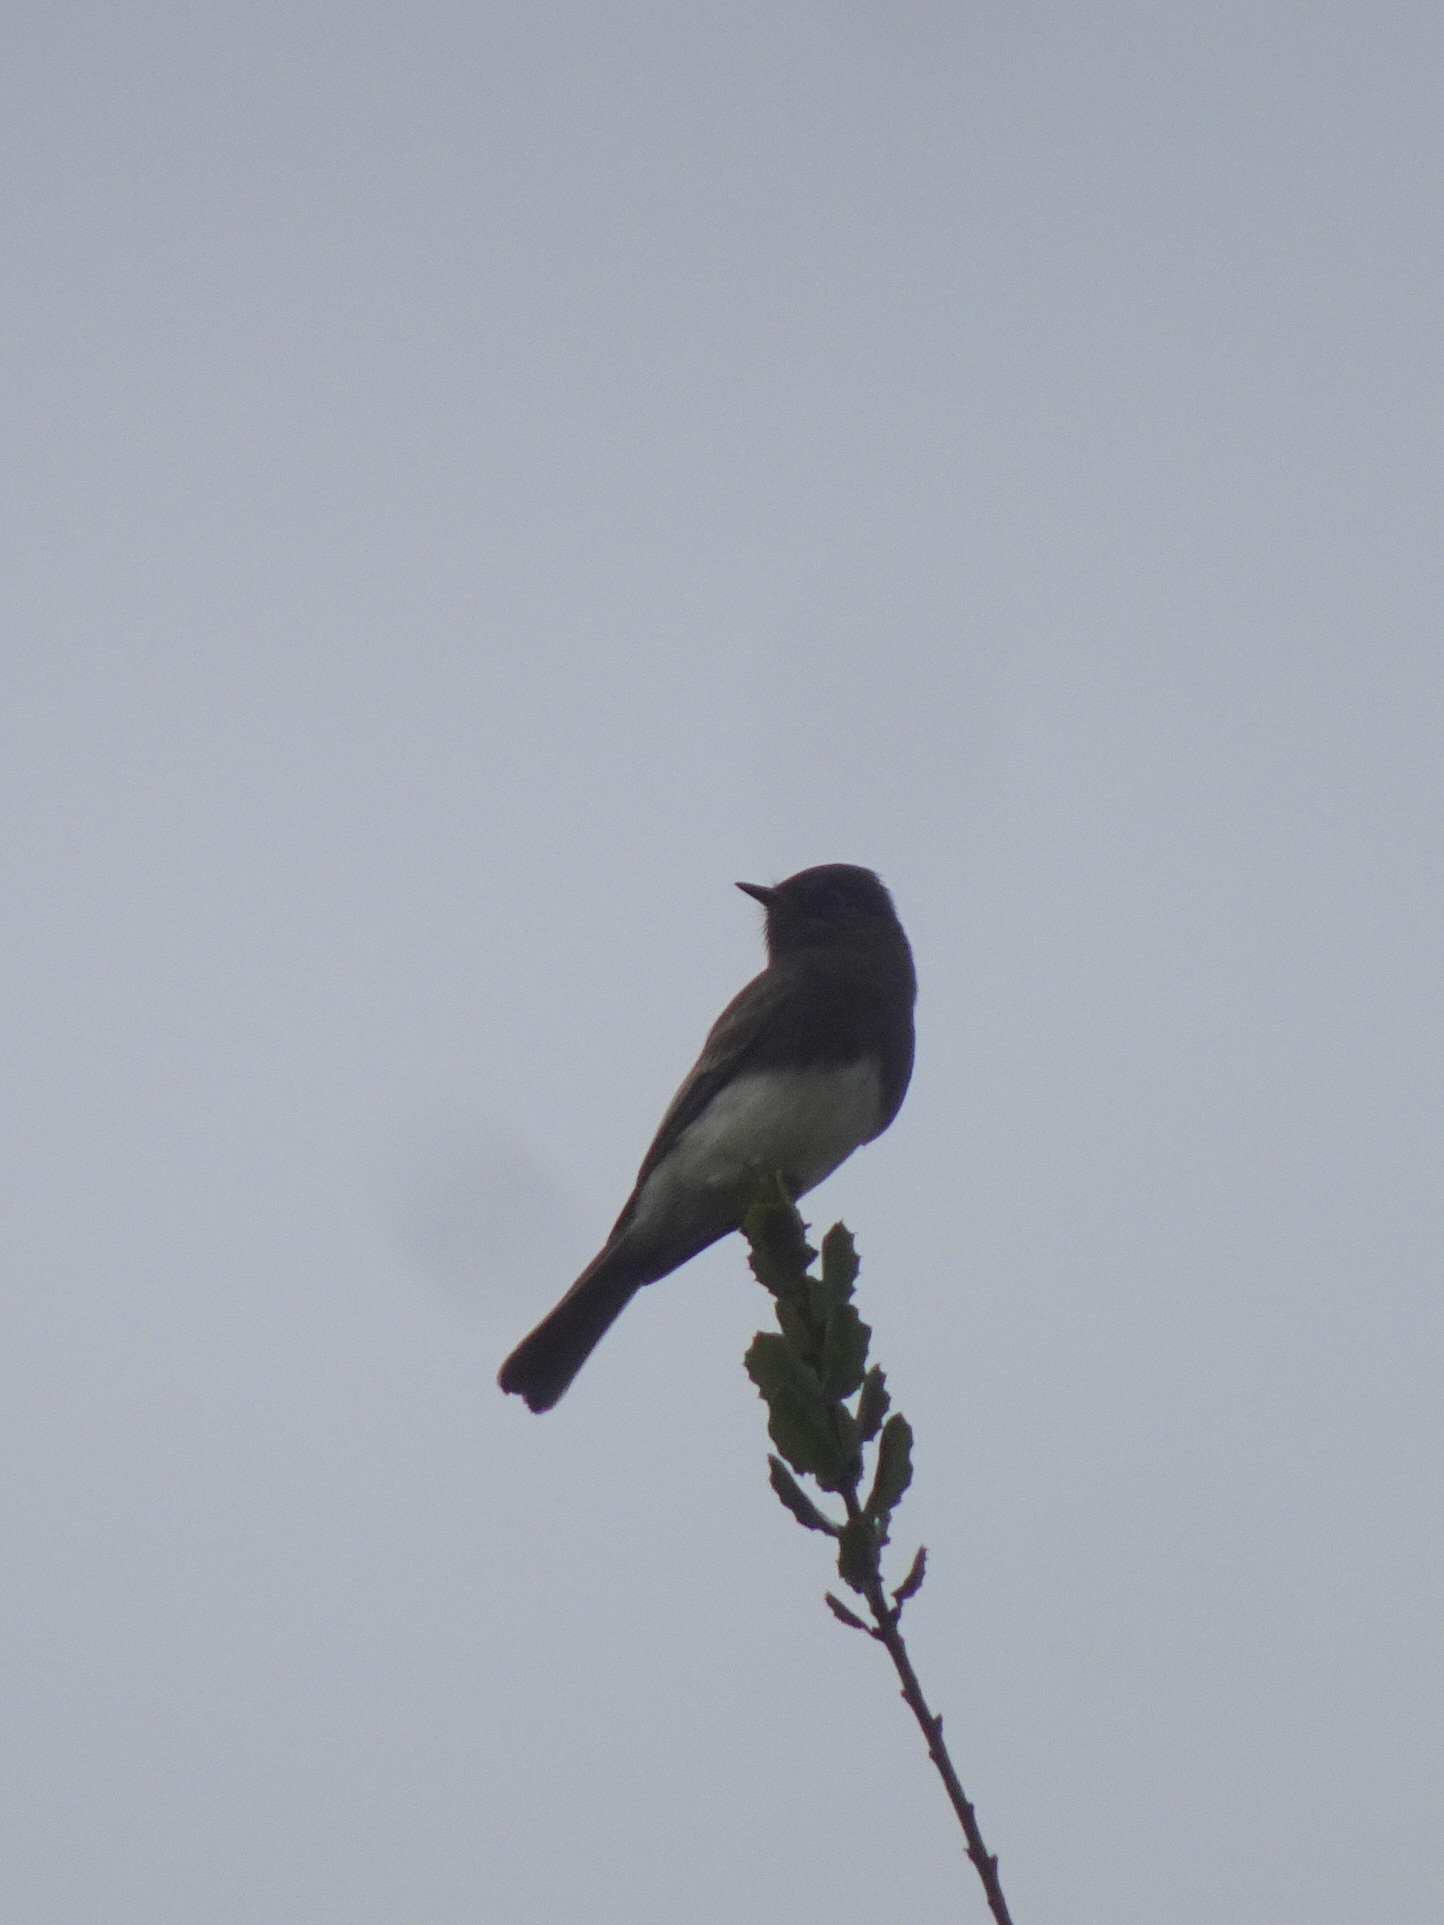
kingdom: Animalia
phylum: Chordata
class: Aves
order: Passeriformes
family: Tyrannidae
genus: Sayornis
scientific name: Sayornis nigricans
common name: Black phoebe
